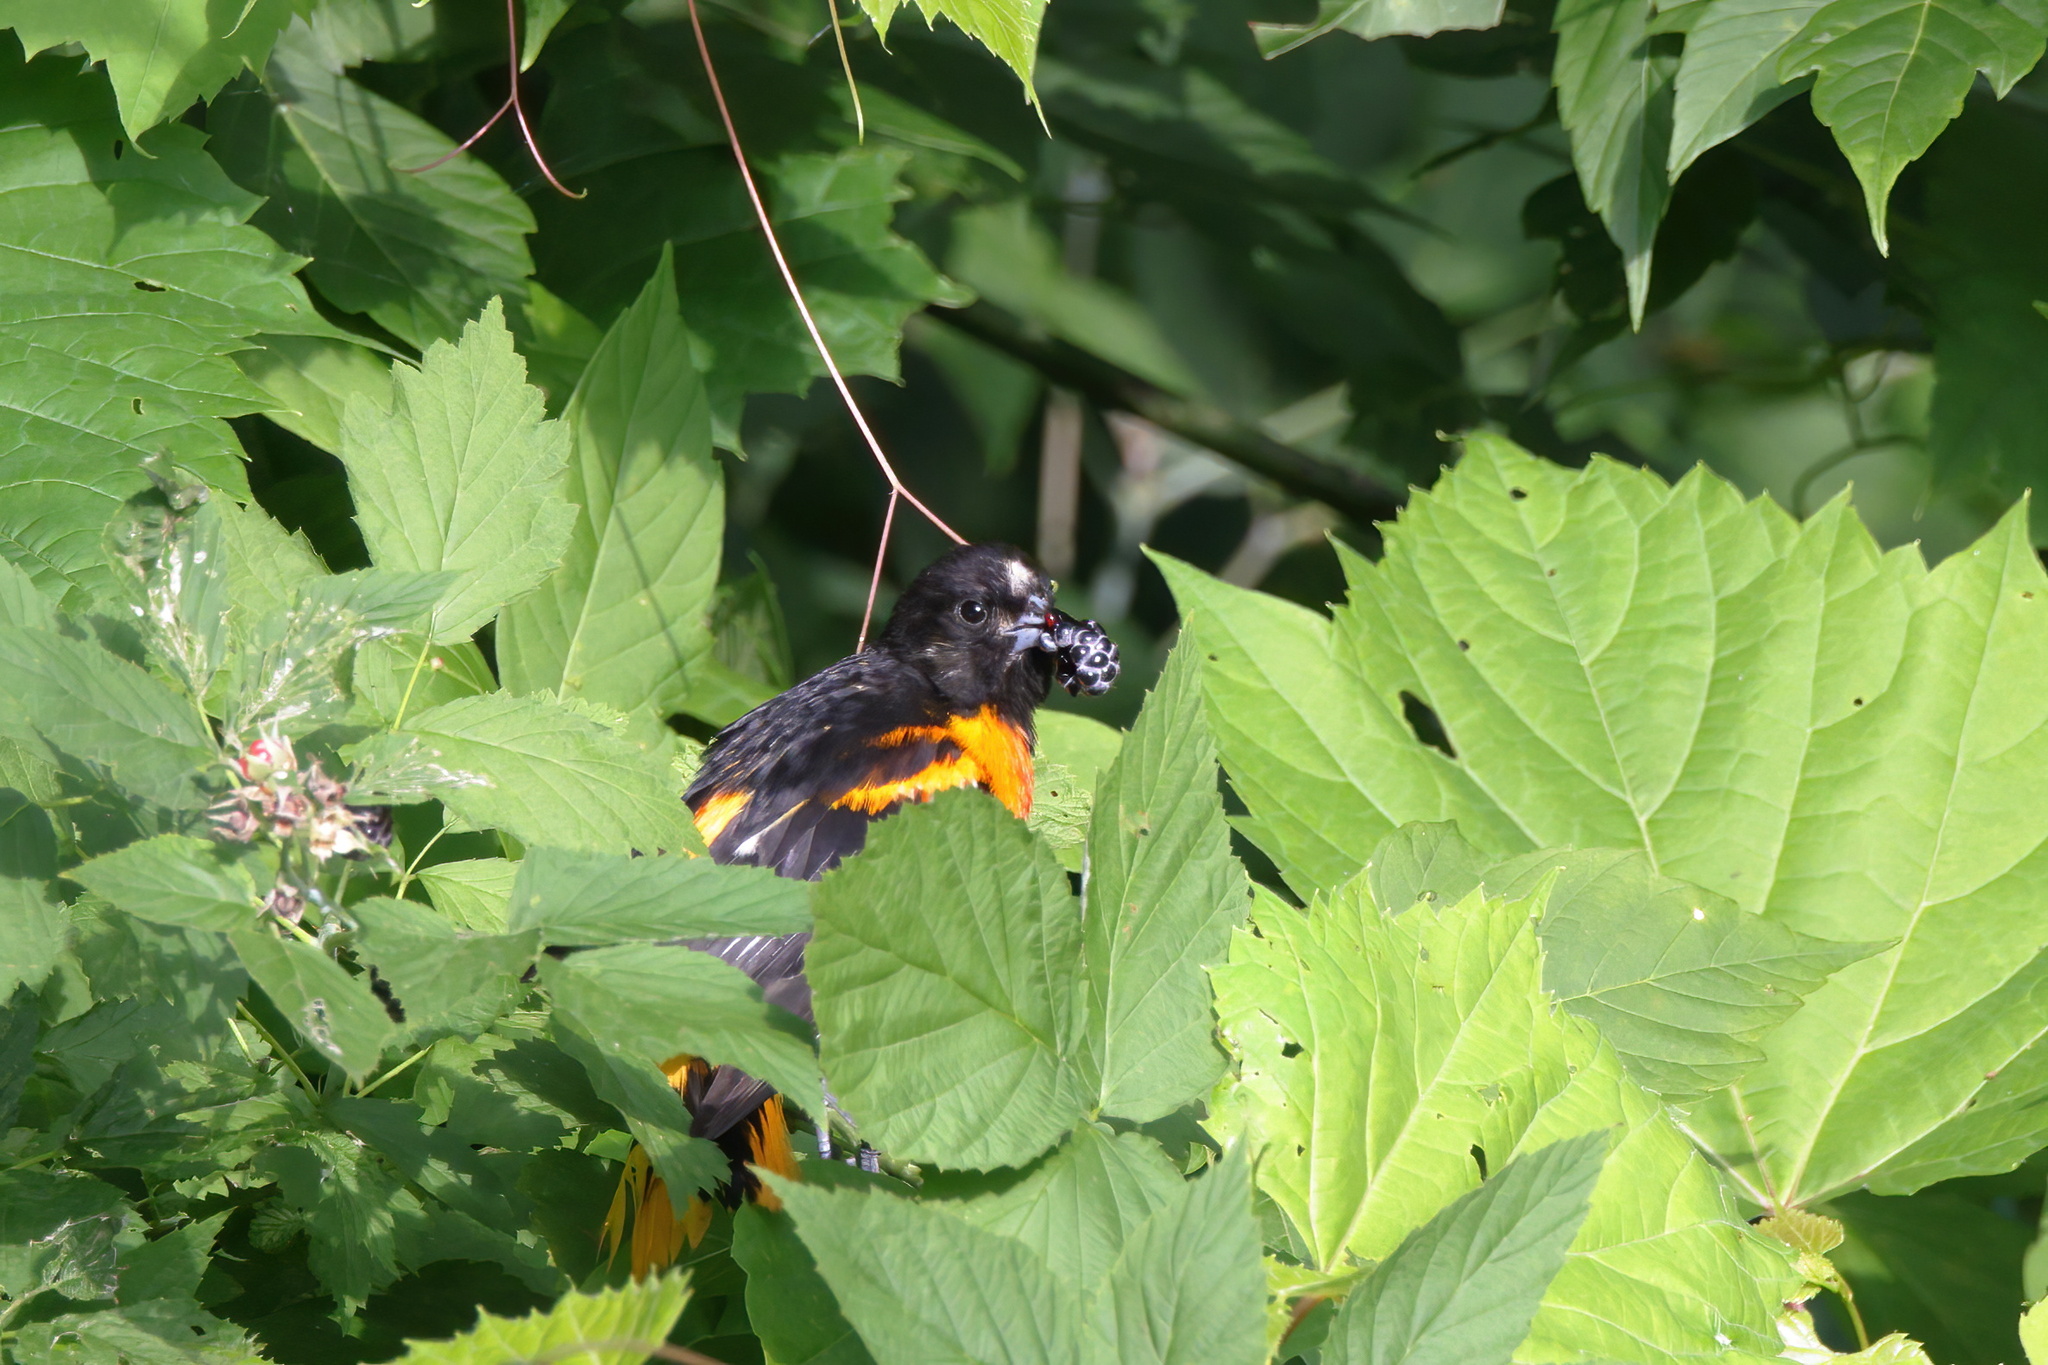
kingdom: Animalia
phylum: Chordata
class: Aves
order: Passeriformes
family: Icteridae
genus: Icterus
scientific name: Icterus galbula
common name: Baltimore oriole
